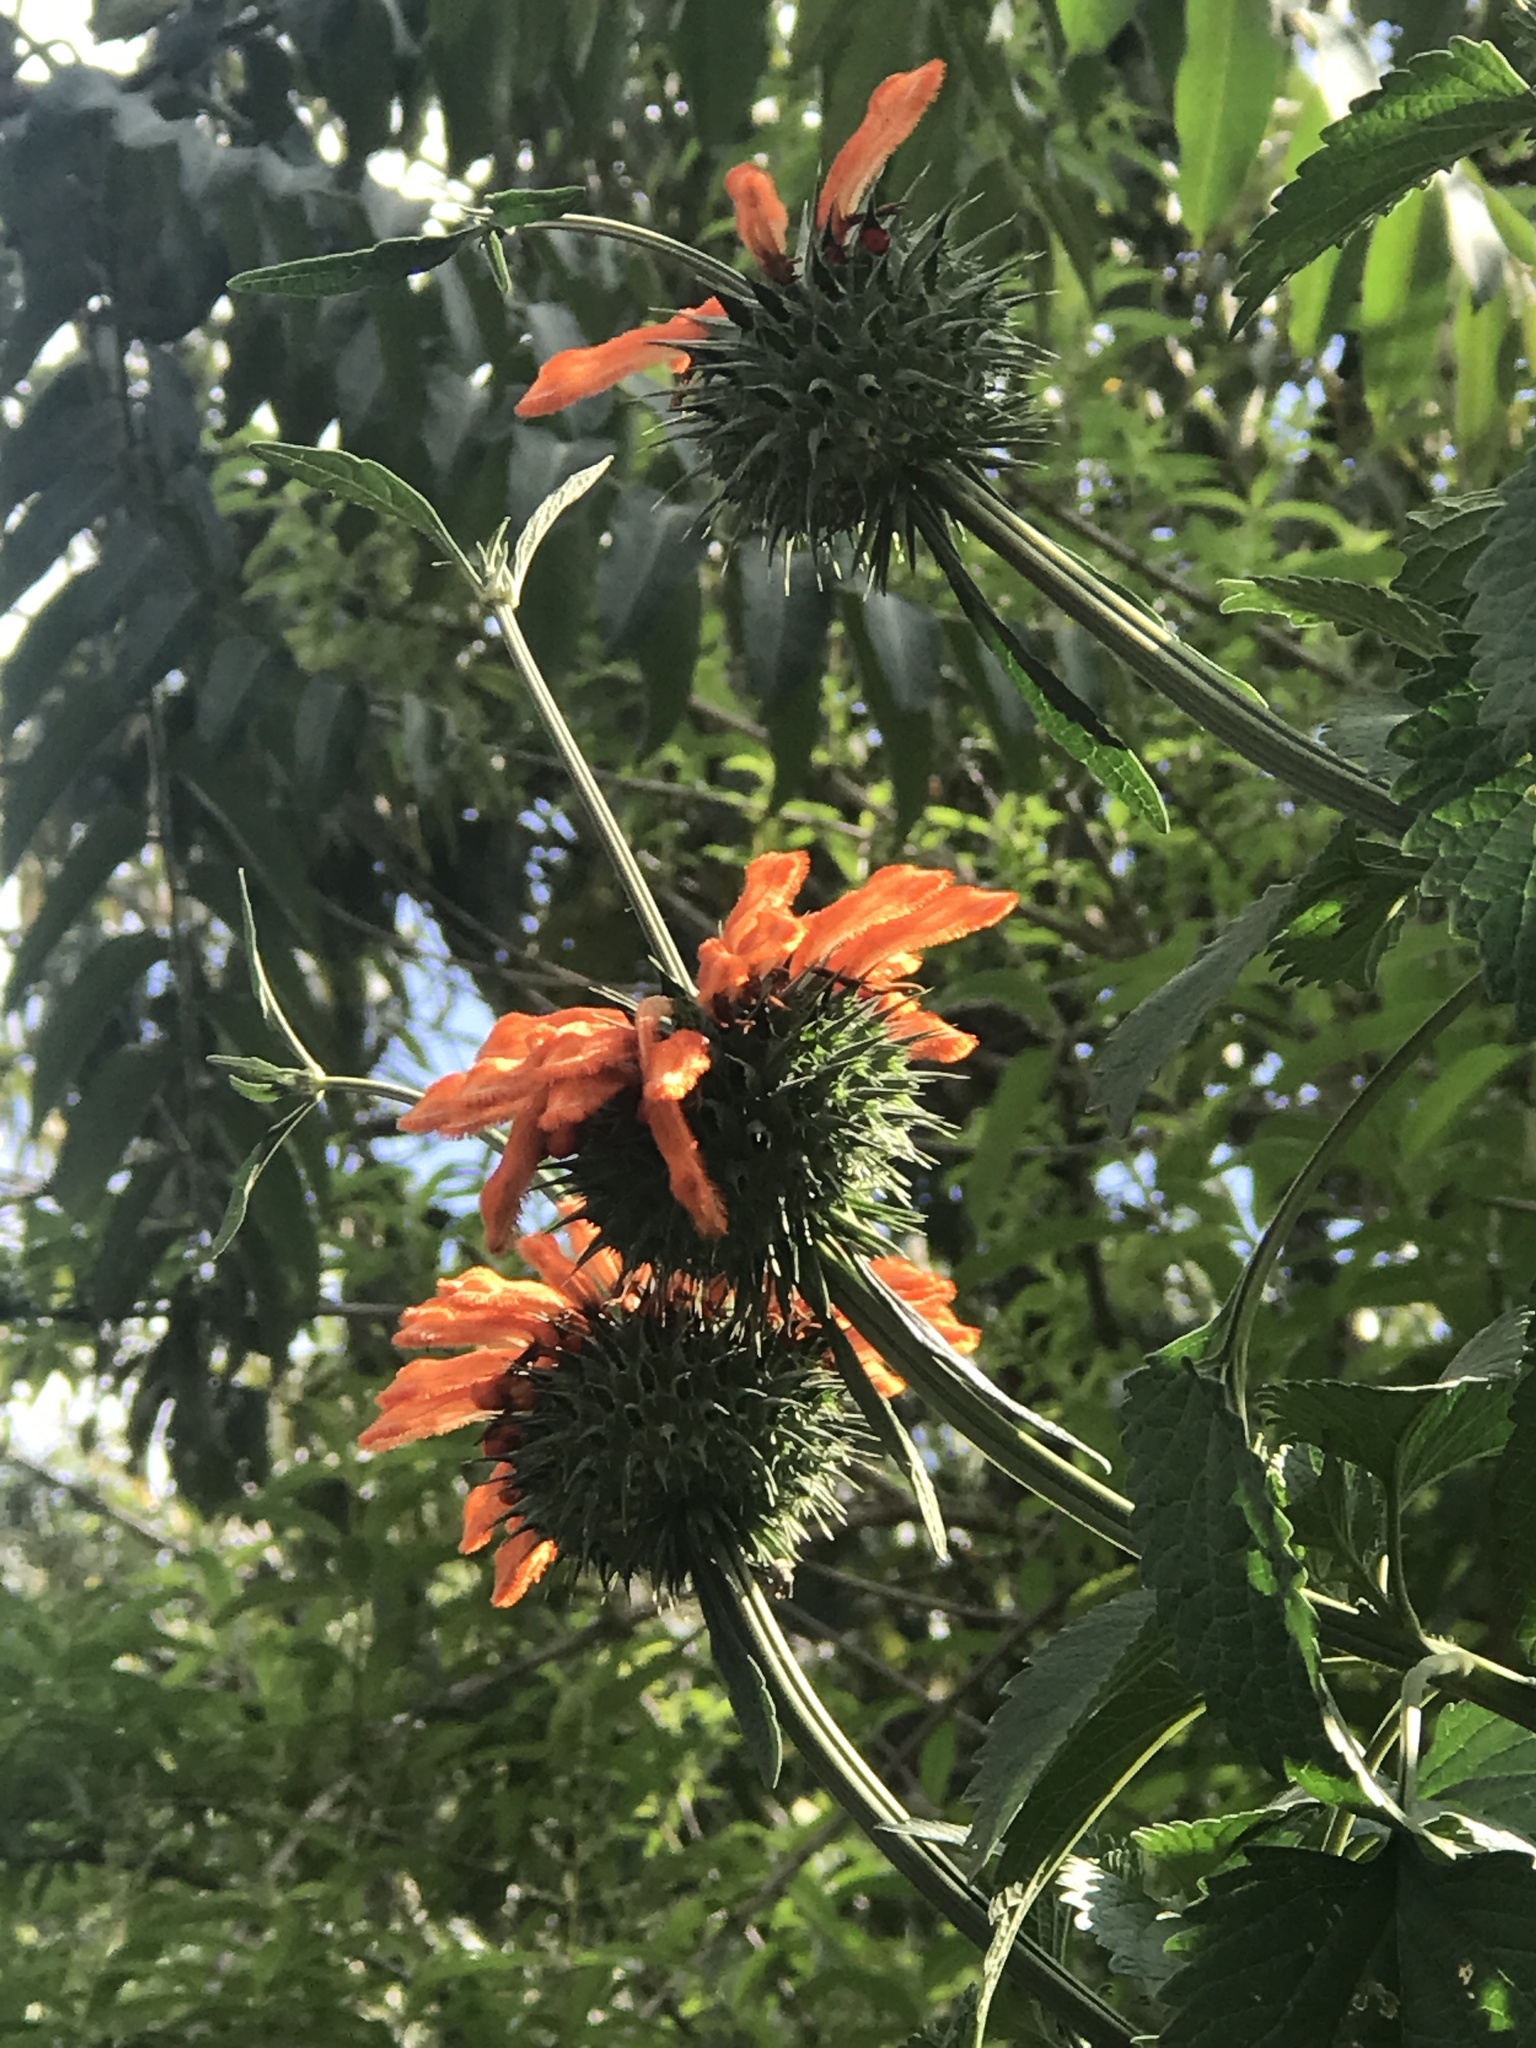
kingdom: Plantae
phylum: Tracheophyta
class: Magnoliopsida
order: Lamiales
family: Lamiaceae
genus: Leonotis
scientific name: Leonotis nepetifolia
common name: Christmas candlestick
